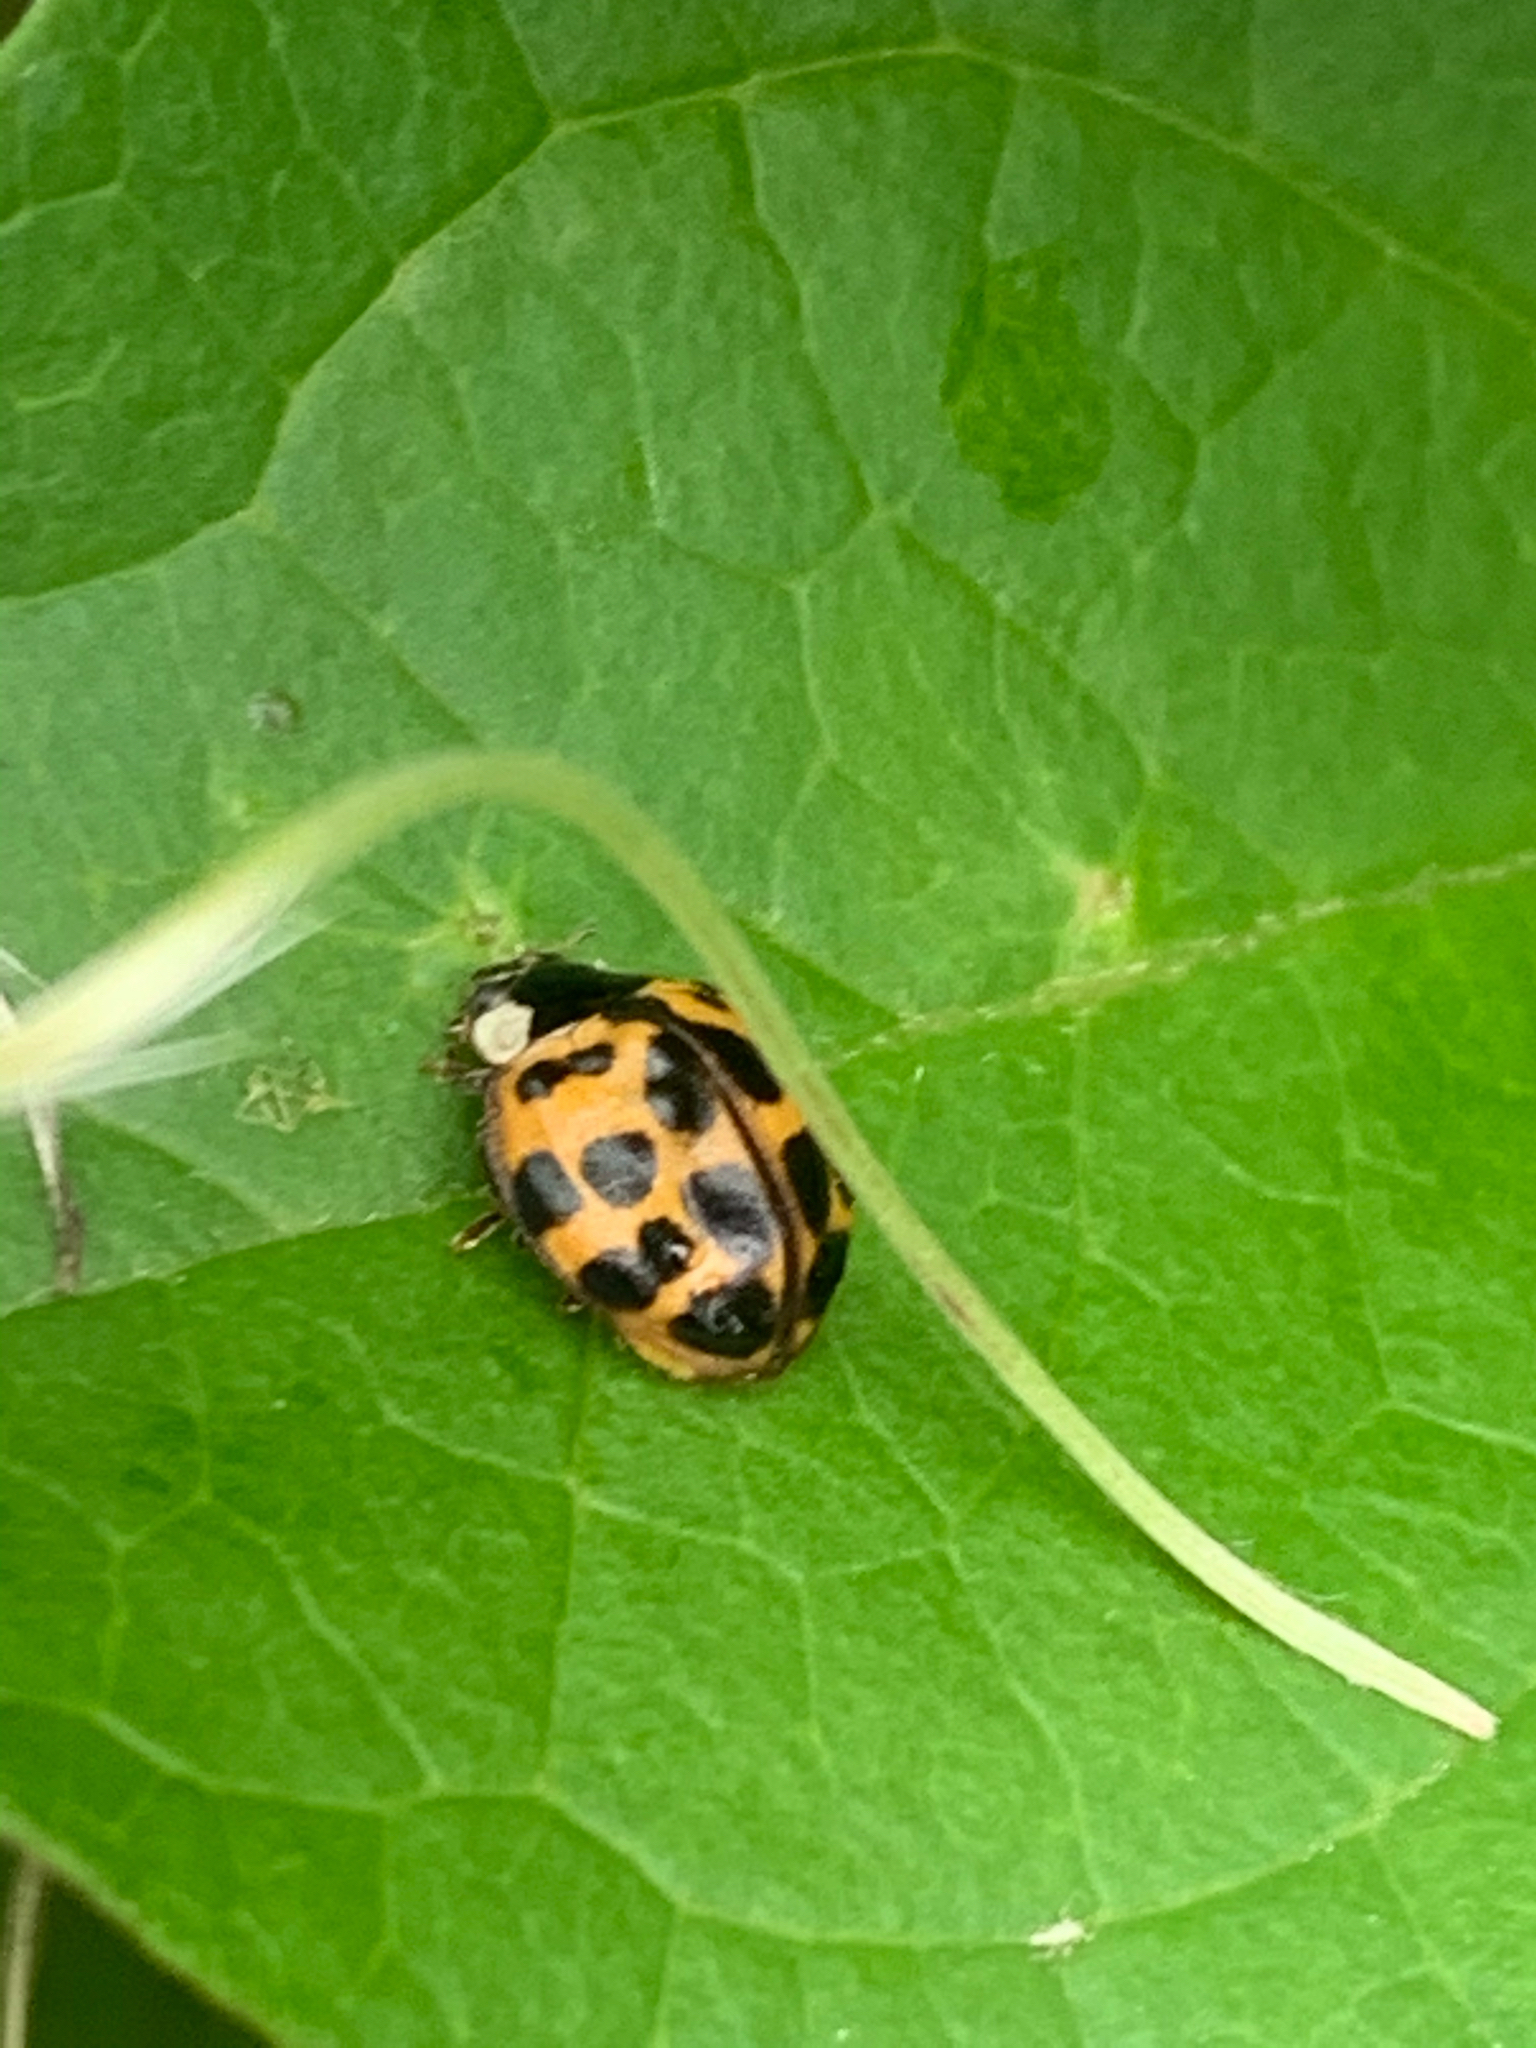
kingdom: Animalia
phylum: Arthropoda
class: Insecta
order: Coleoptera
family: Coccinellidae
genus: Harmonia
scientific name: Harmonia axyridis
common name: Harlequin ladybird
